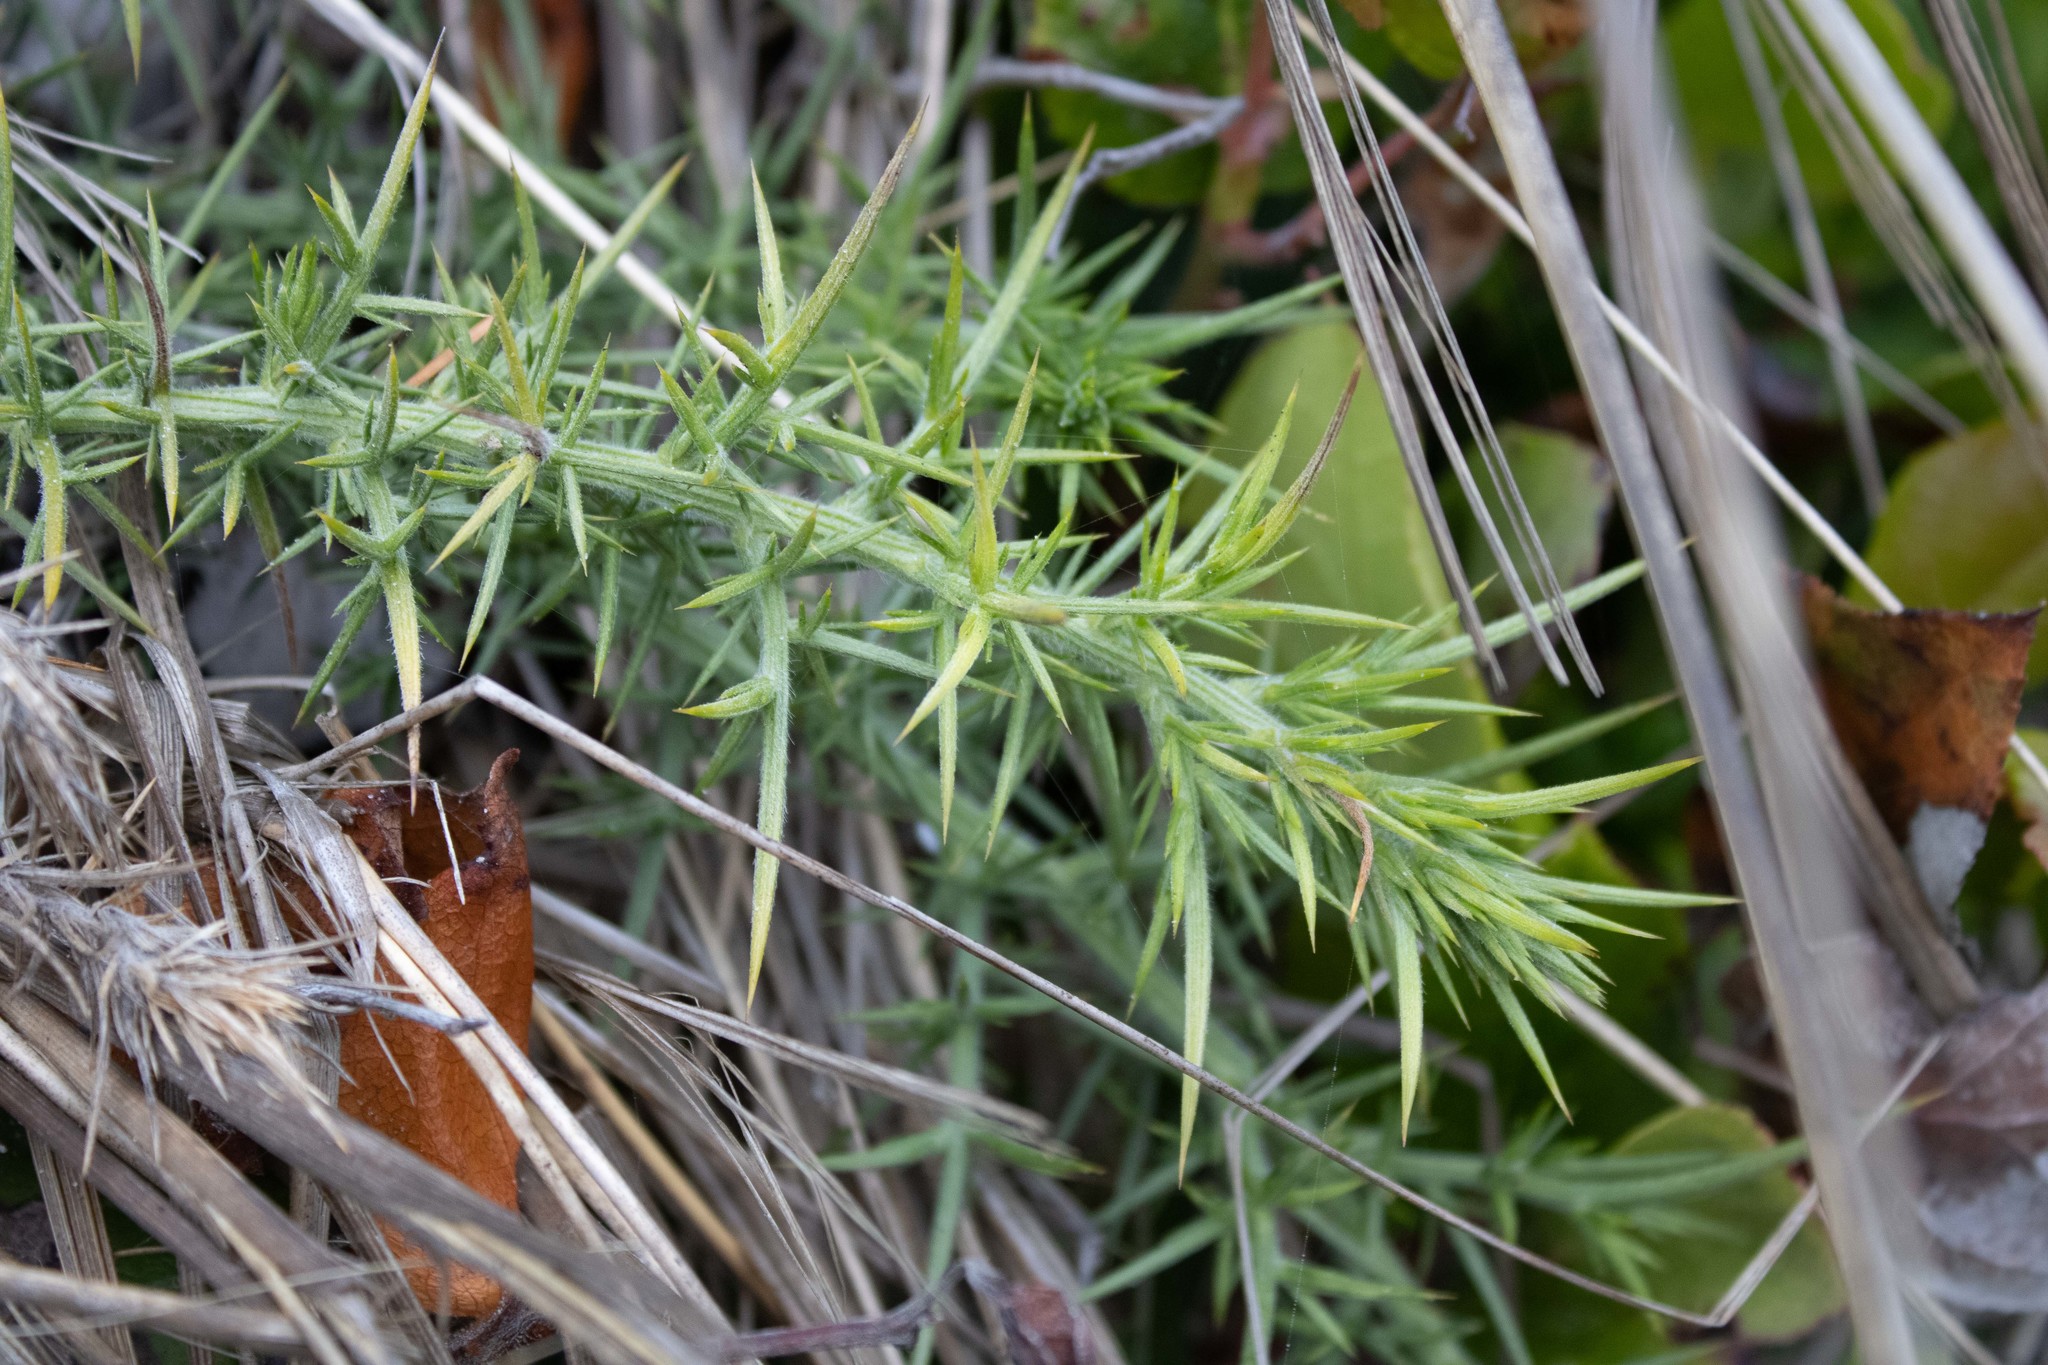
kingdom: Plantae
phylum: Tracheophyta
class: Magnoliopsida
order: Fabales
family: Fabaceae
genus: Ulex
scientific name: Ulex europaeus
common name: Common gorse
